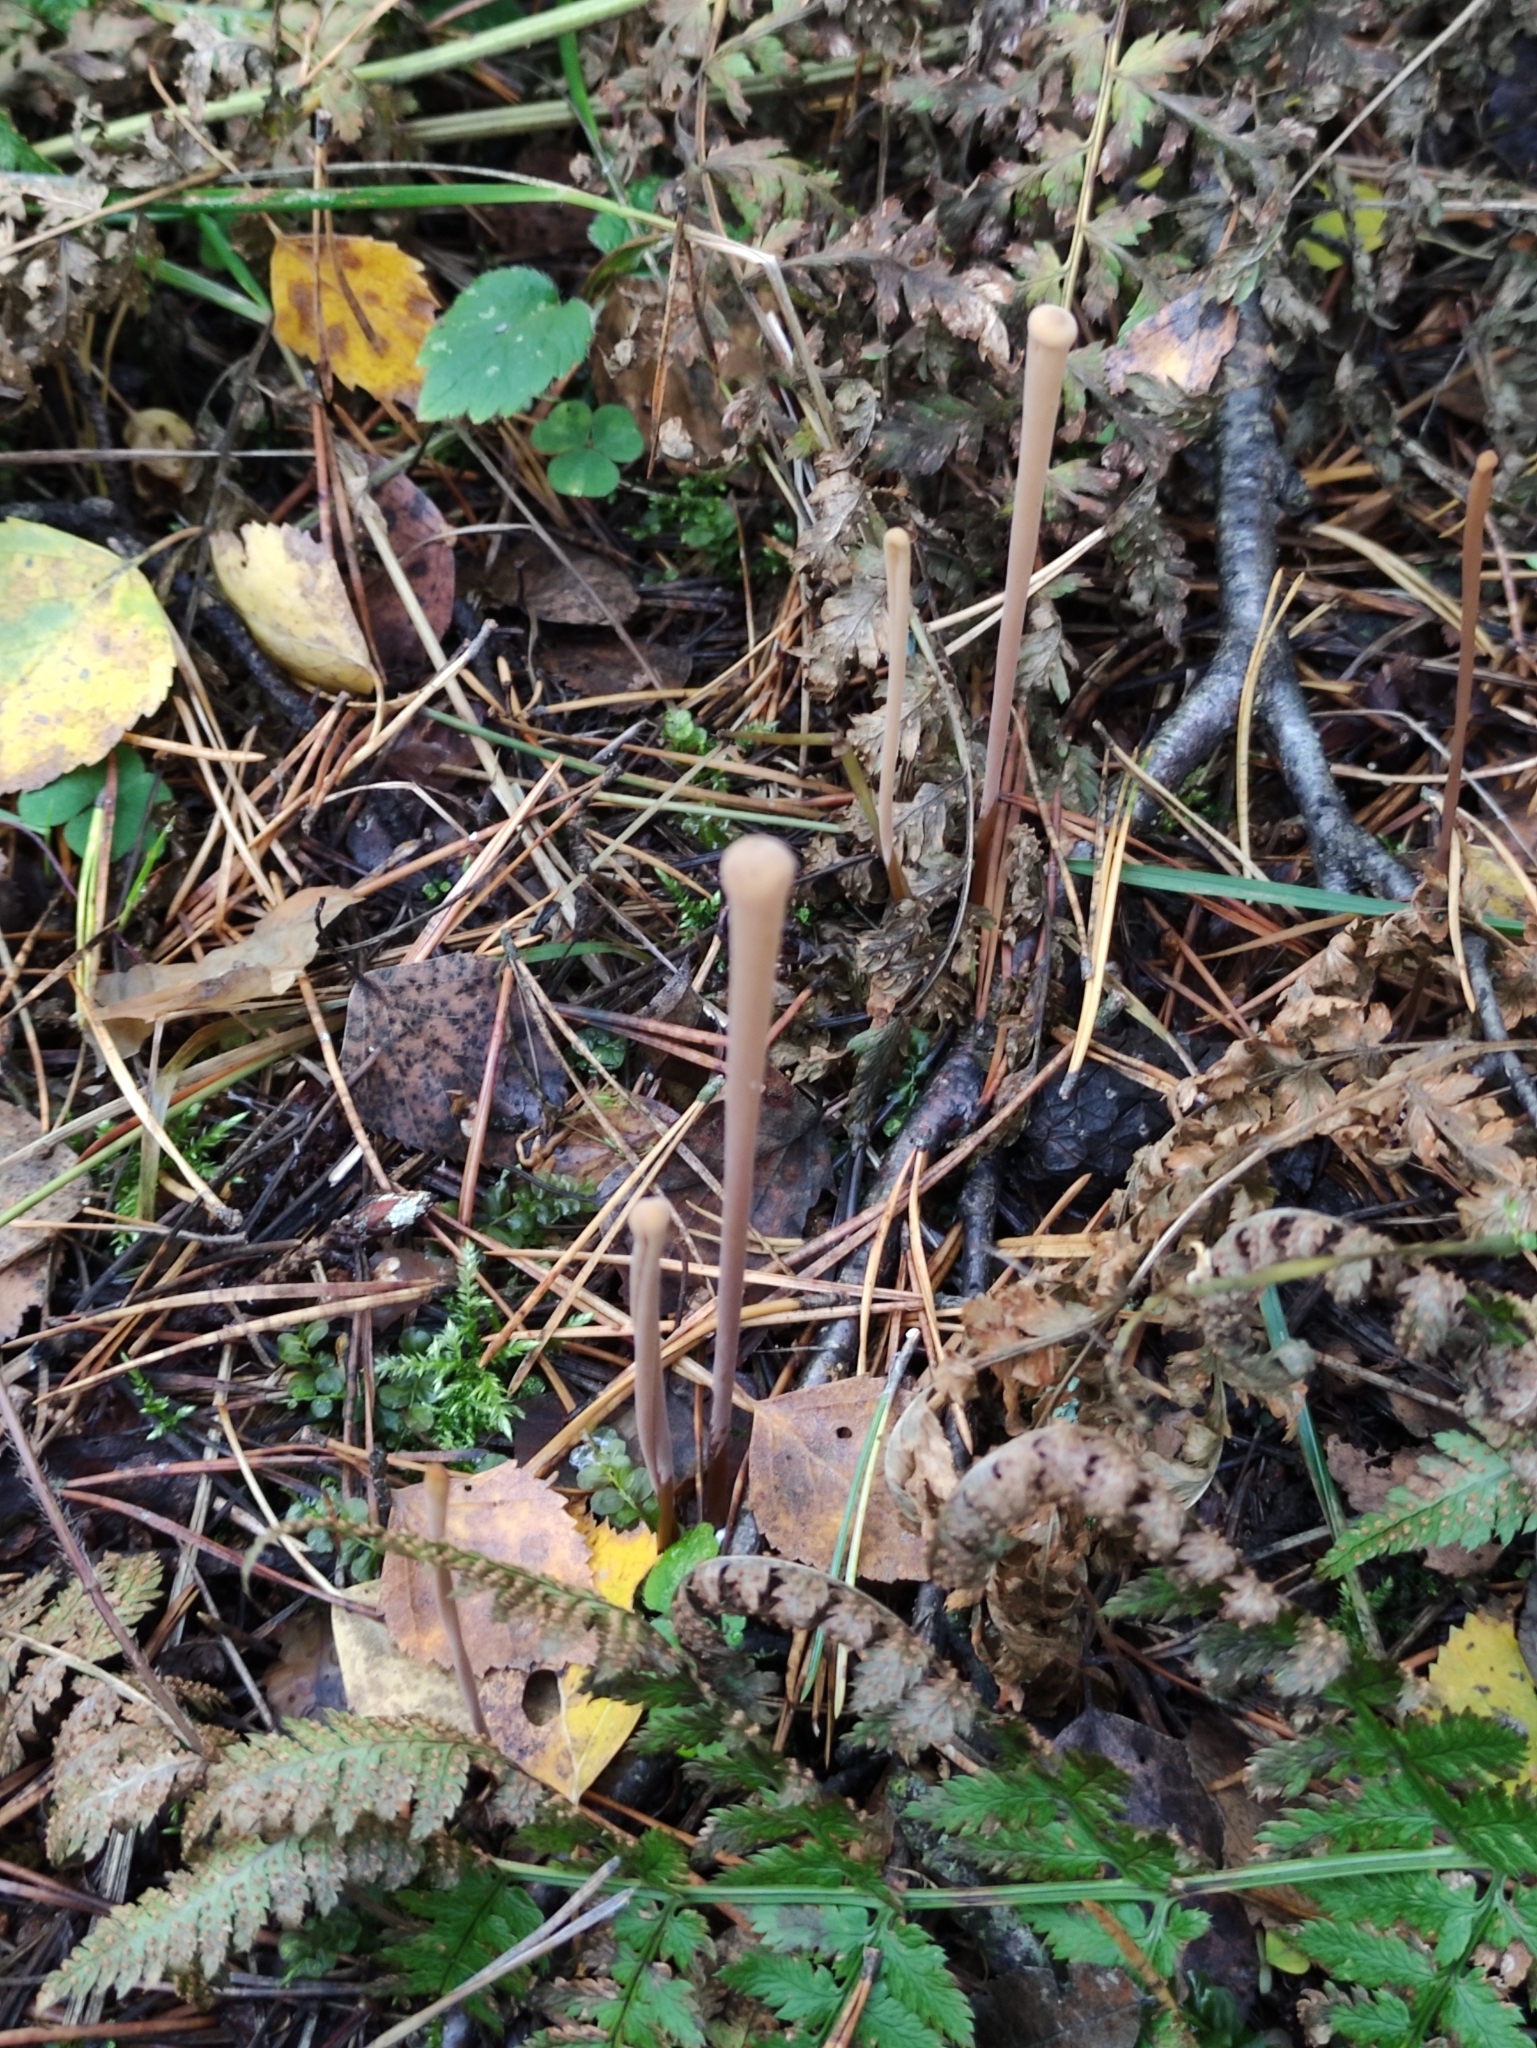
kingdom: Fungi
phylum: Basidiomycota
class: Agaricomycetes
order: Agaricales
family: Typhulaceae
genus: Typhula
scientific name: Typhula fistulosa
